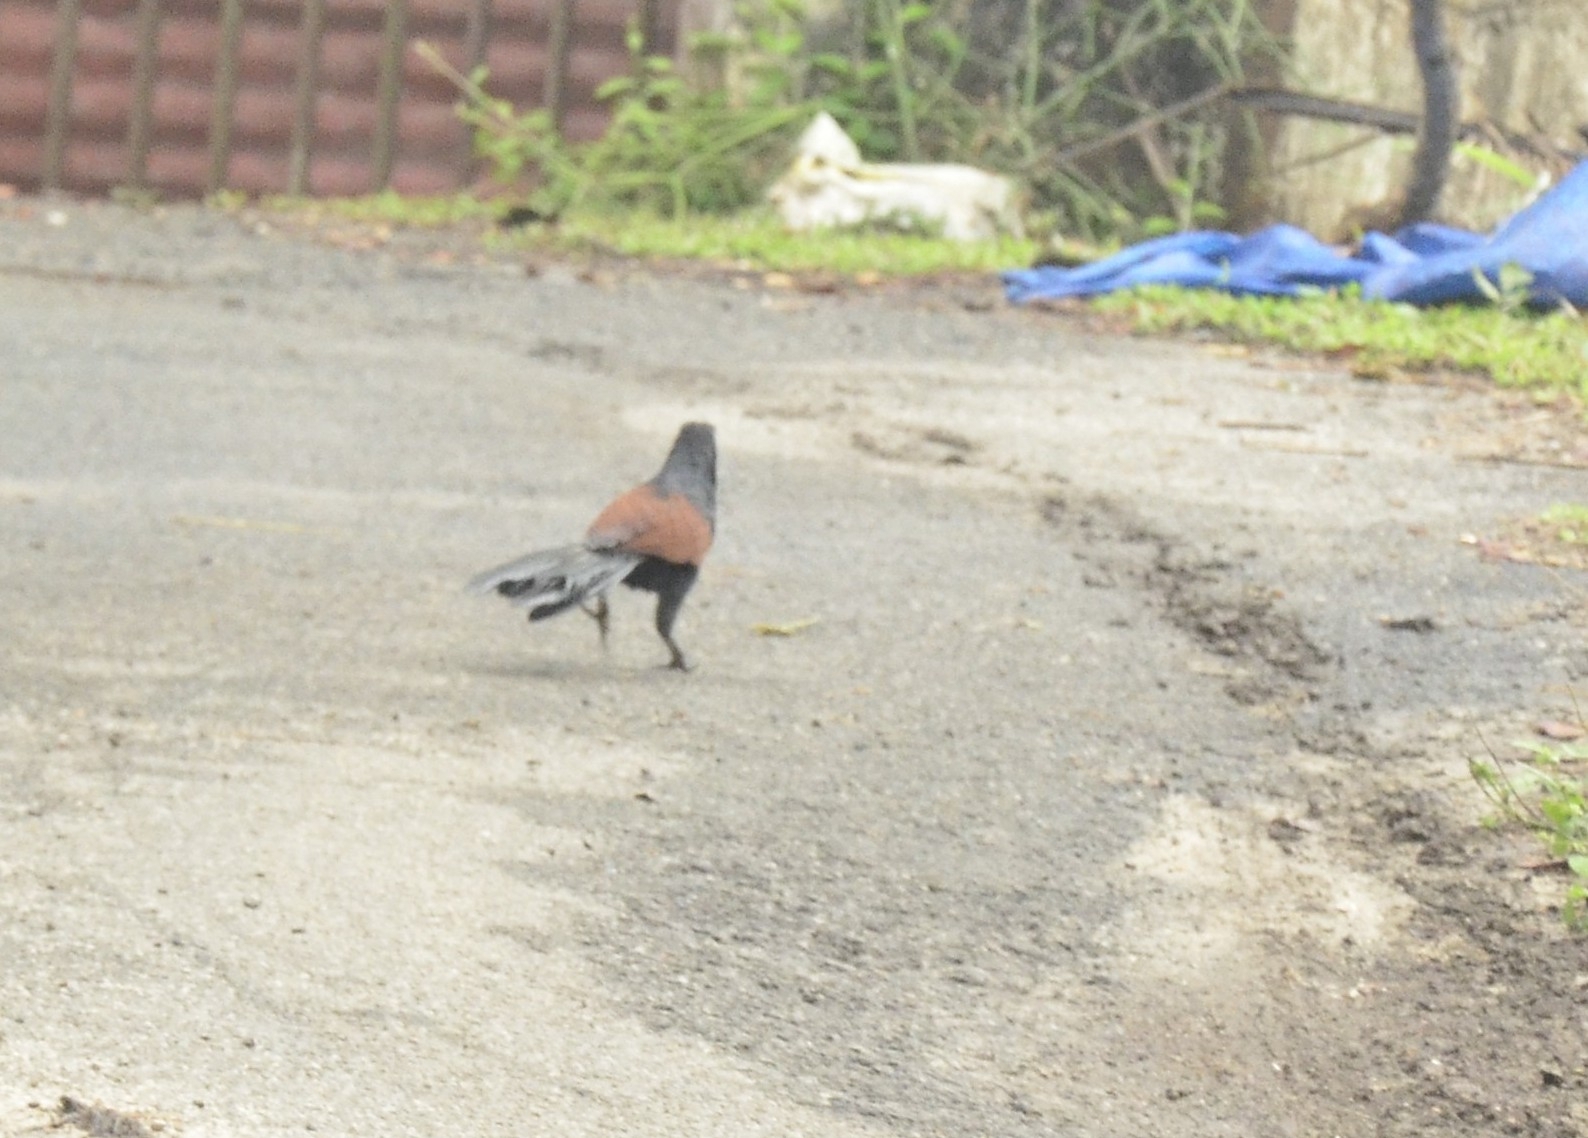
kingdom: Animalia
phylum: Chordata
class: Aves
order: Cuculiformes
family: Cuculidae
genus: Centropus
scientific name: Centropus sinensis
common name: Greater coucal
